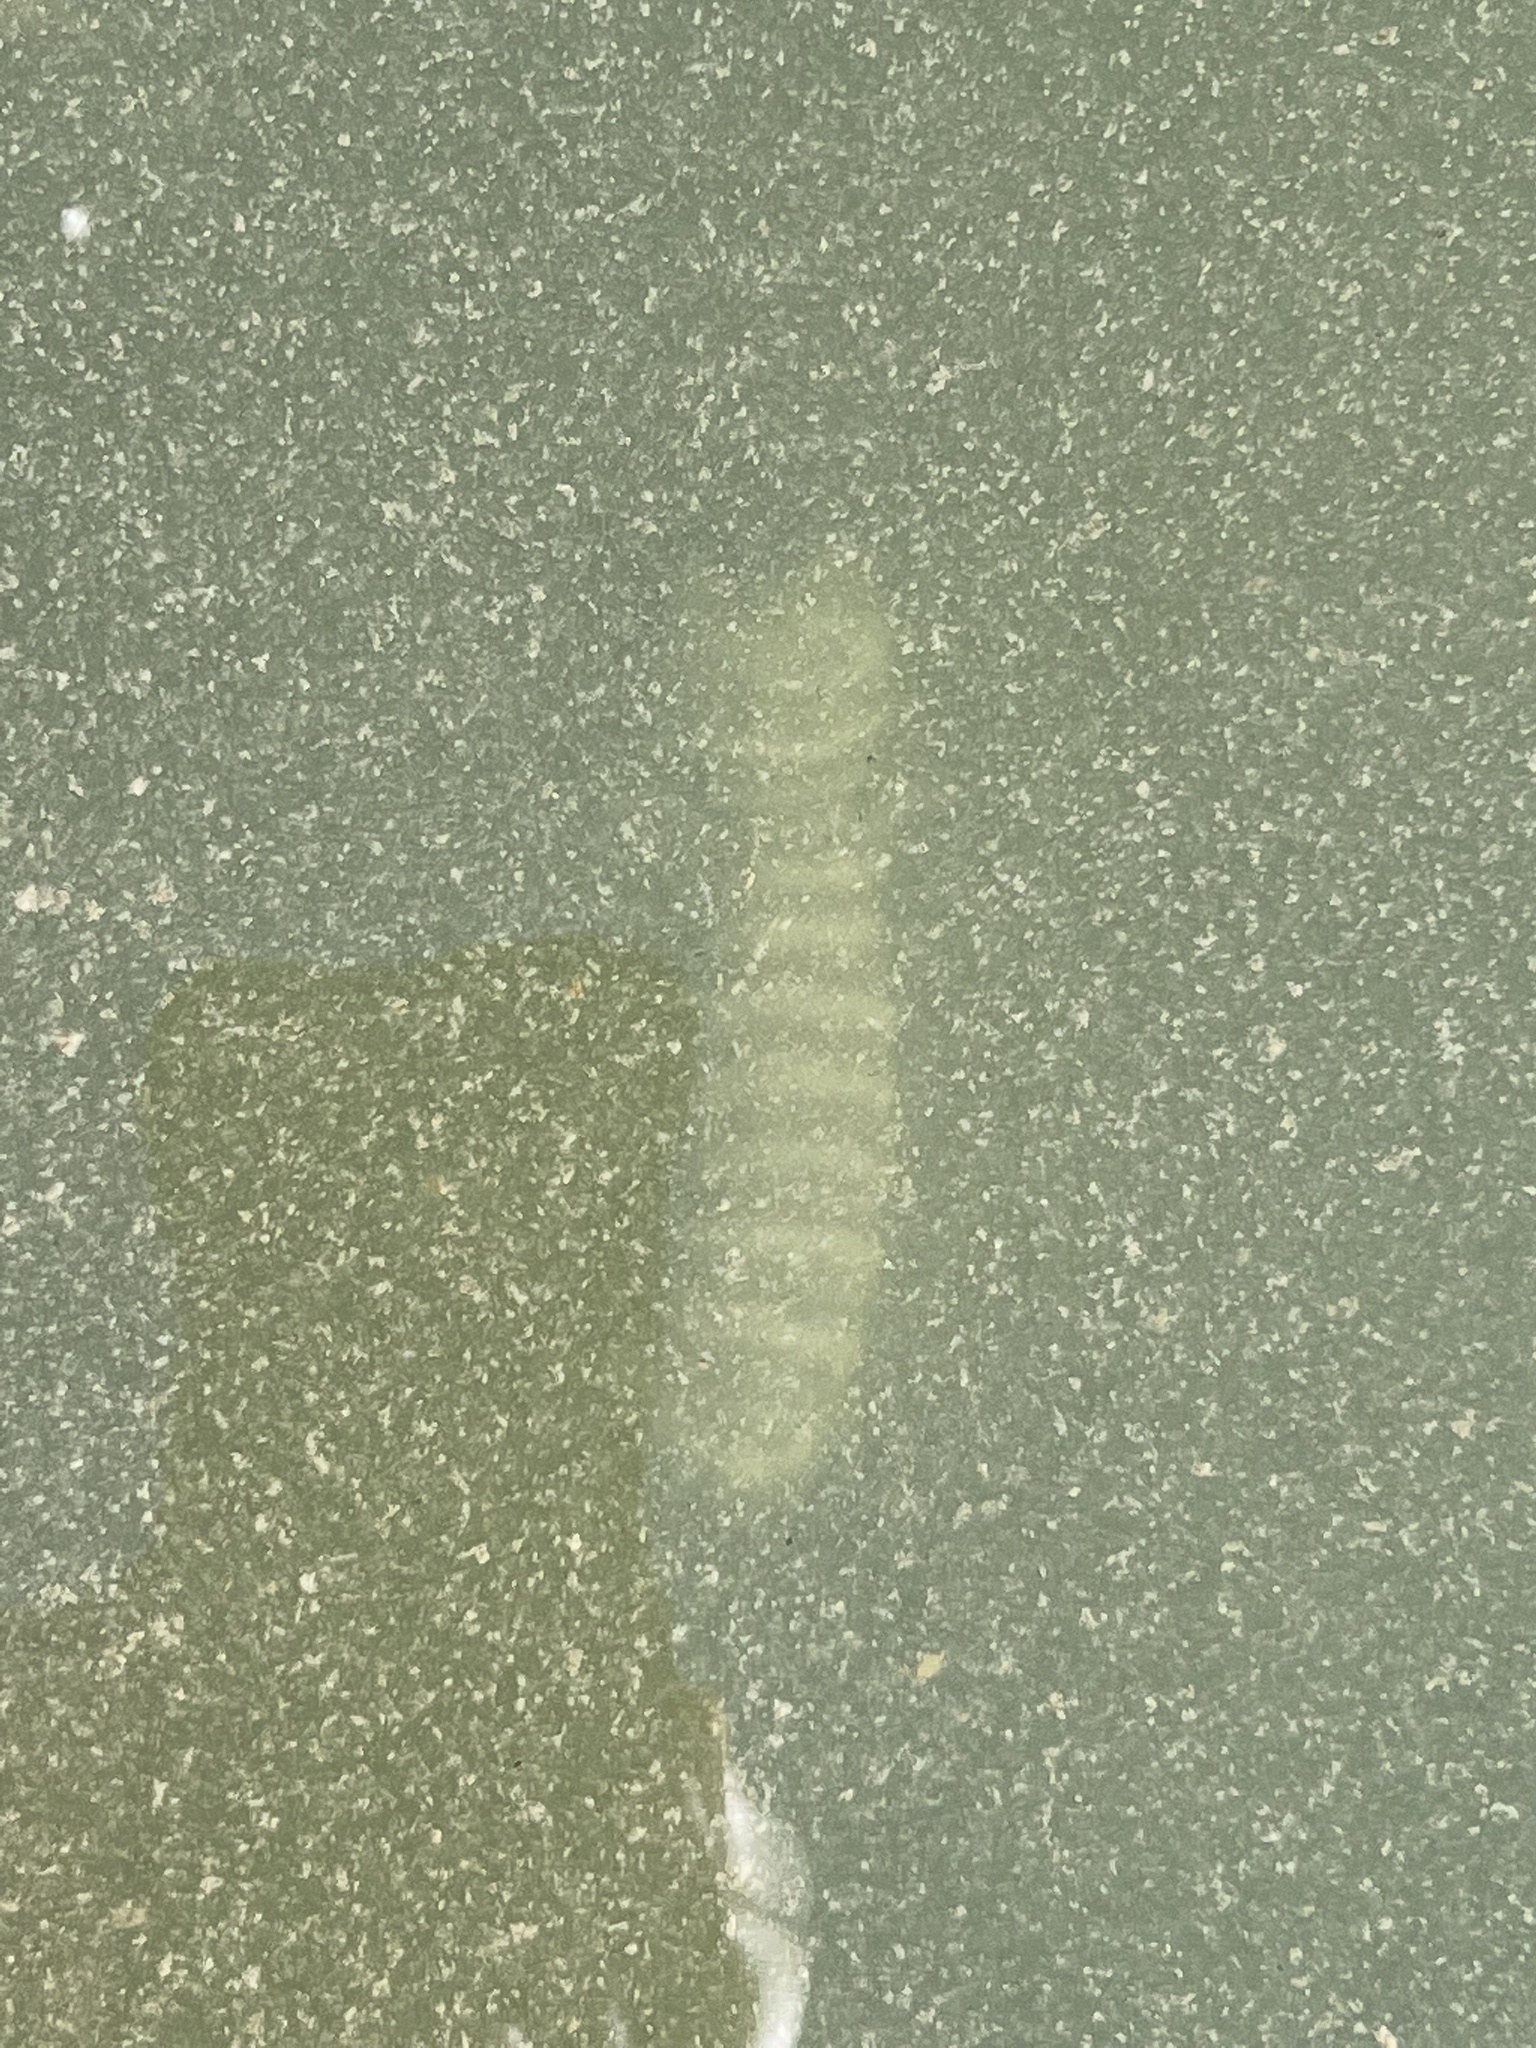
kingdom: Animalia
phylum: Arthropoda
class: Malacostraca
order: Stomatopoda
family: Lysiosquillidae
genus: Lysiosquilla
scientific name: Lysiosquilla scabricauda
